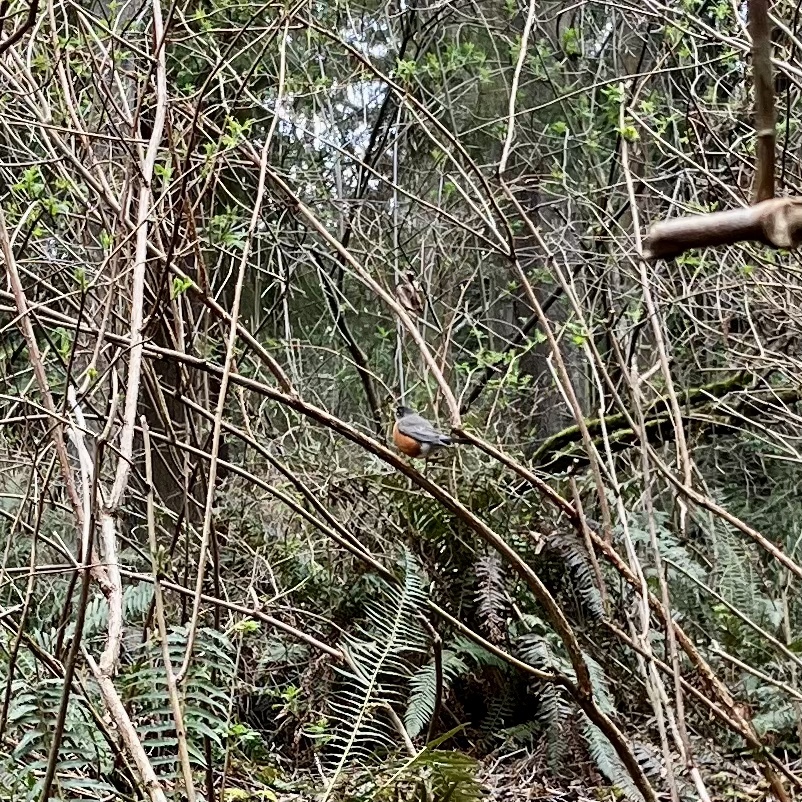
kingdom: Animalia
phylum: Chordata
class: Aves
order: Passeriformes
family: Turdidae
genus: Turdus
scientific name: Turdus migratorius
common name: American robin
